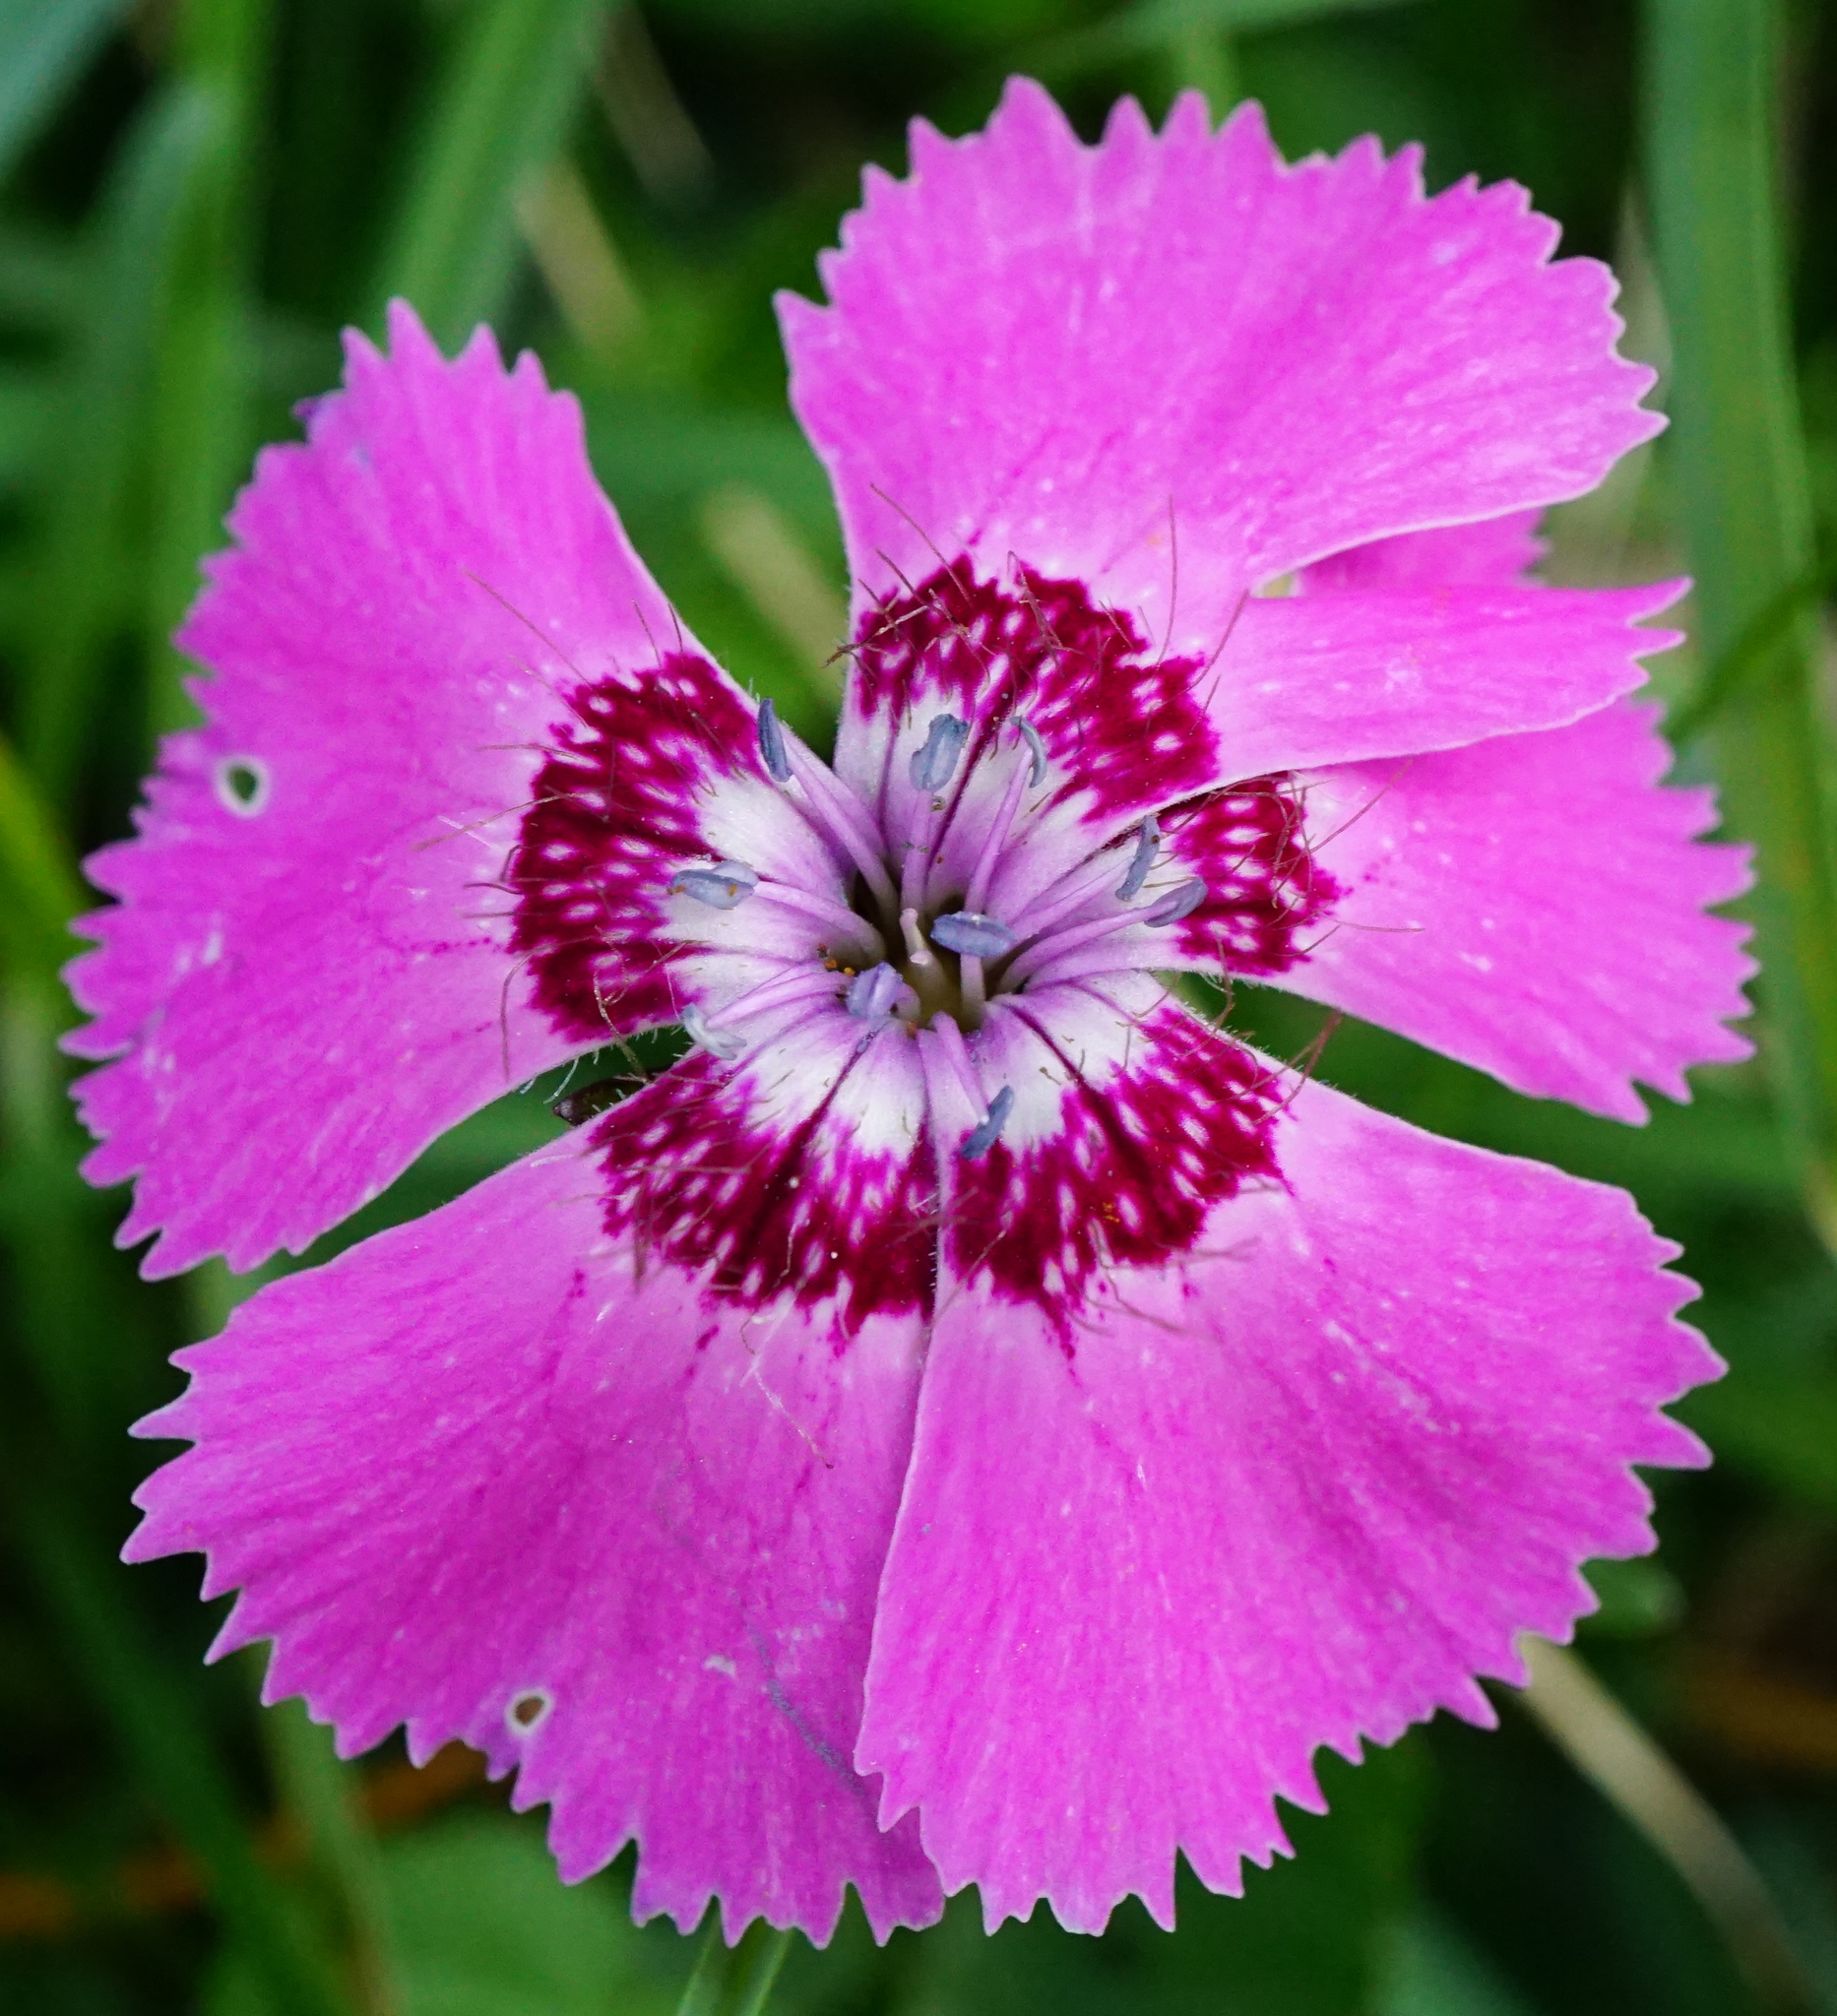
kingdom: Plantae
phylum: Tracheophyta
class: Magnoliopsida
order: Caryophyllales
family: Caryophyllaceae
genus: Dianthus
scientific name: Dianthus alpinus
